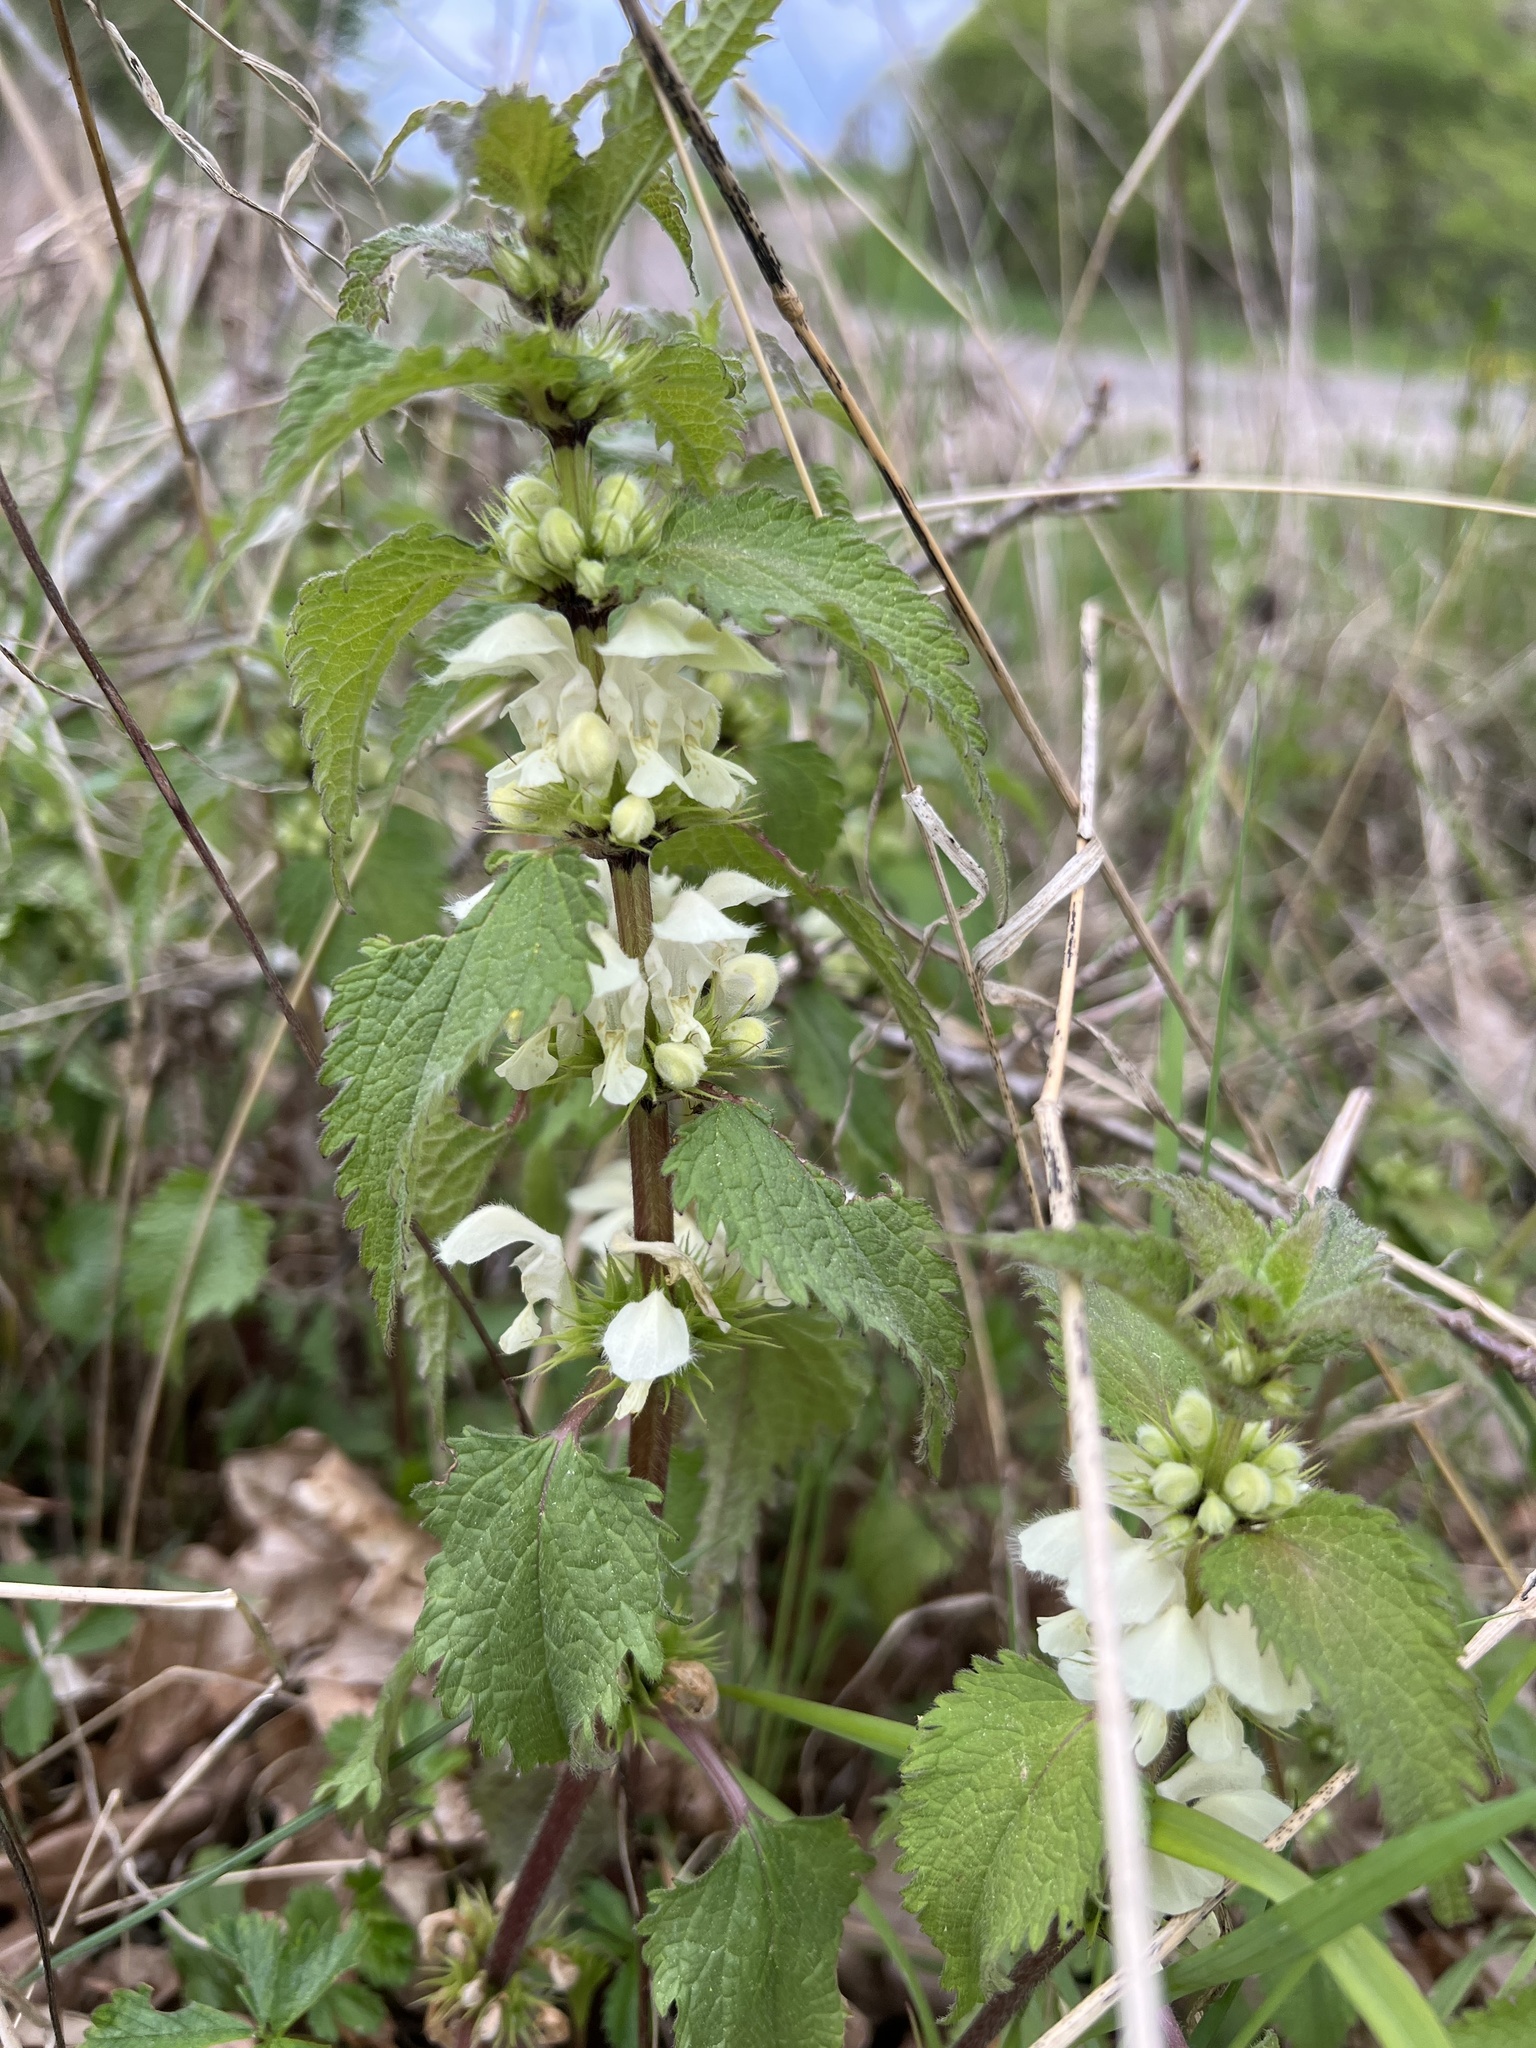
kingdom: Plantae
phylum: Tracheophyta
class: Magnoliopsida
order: Lamiales
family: Lamiaceae
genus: Lamium
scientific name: Lamium album
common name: White dead-nettle
